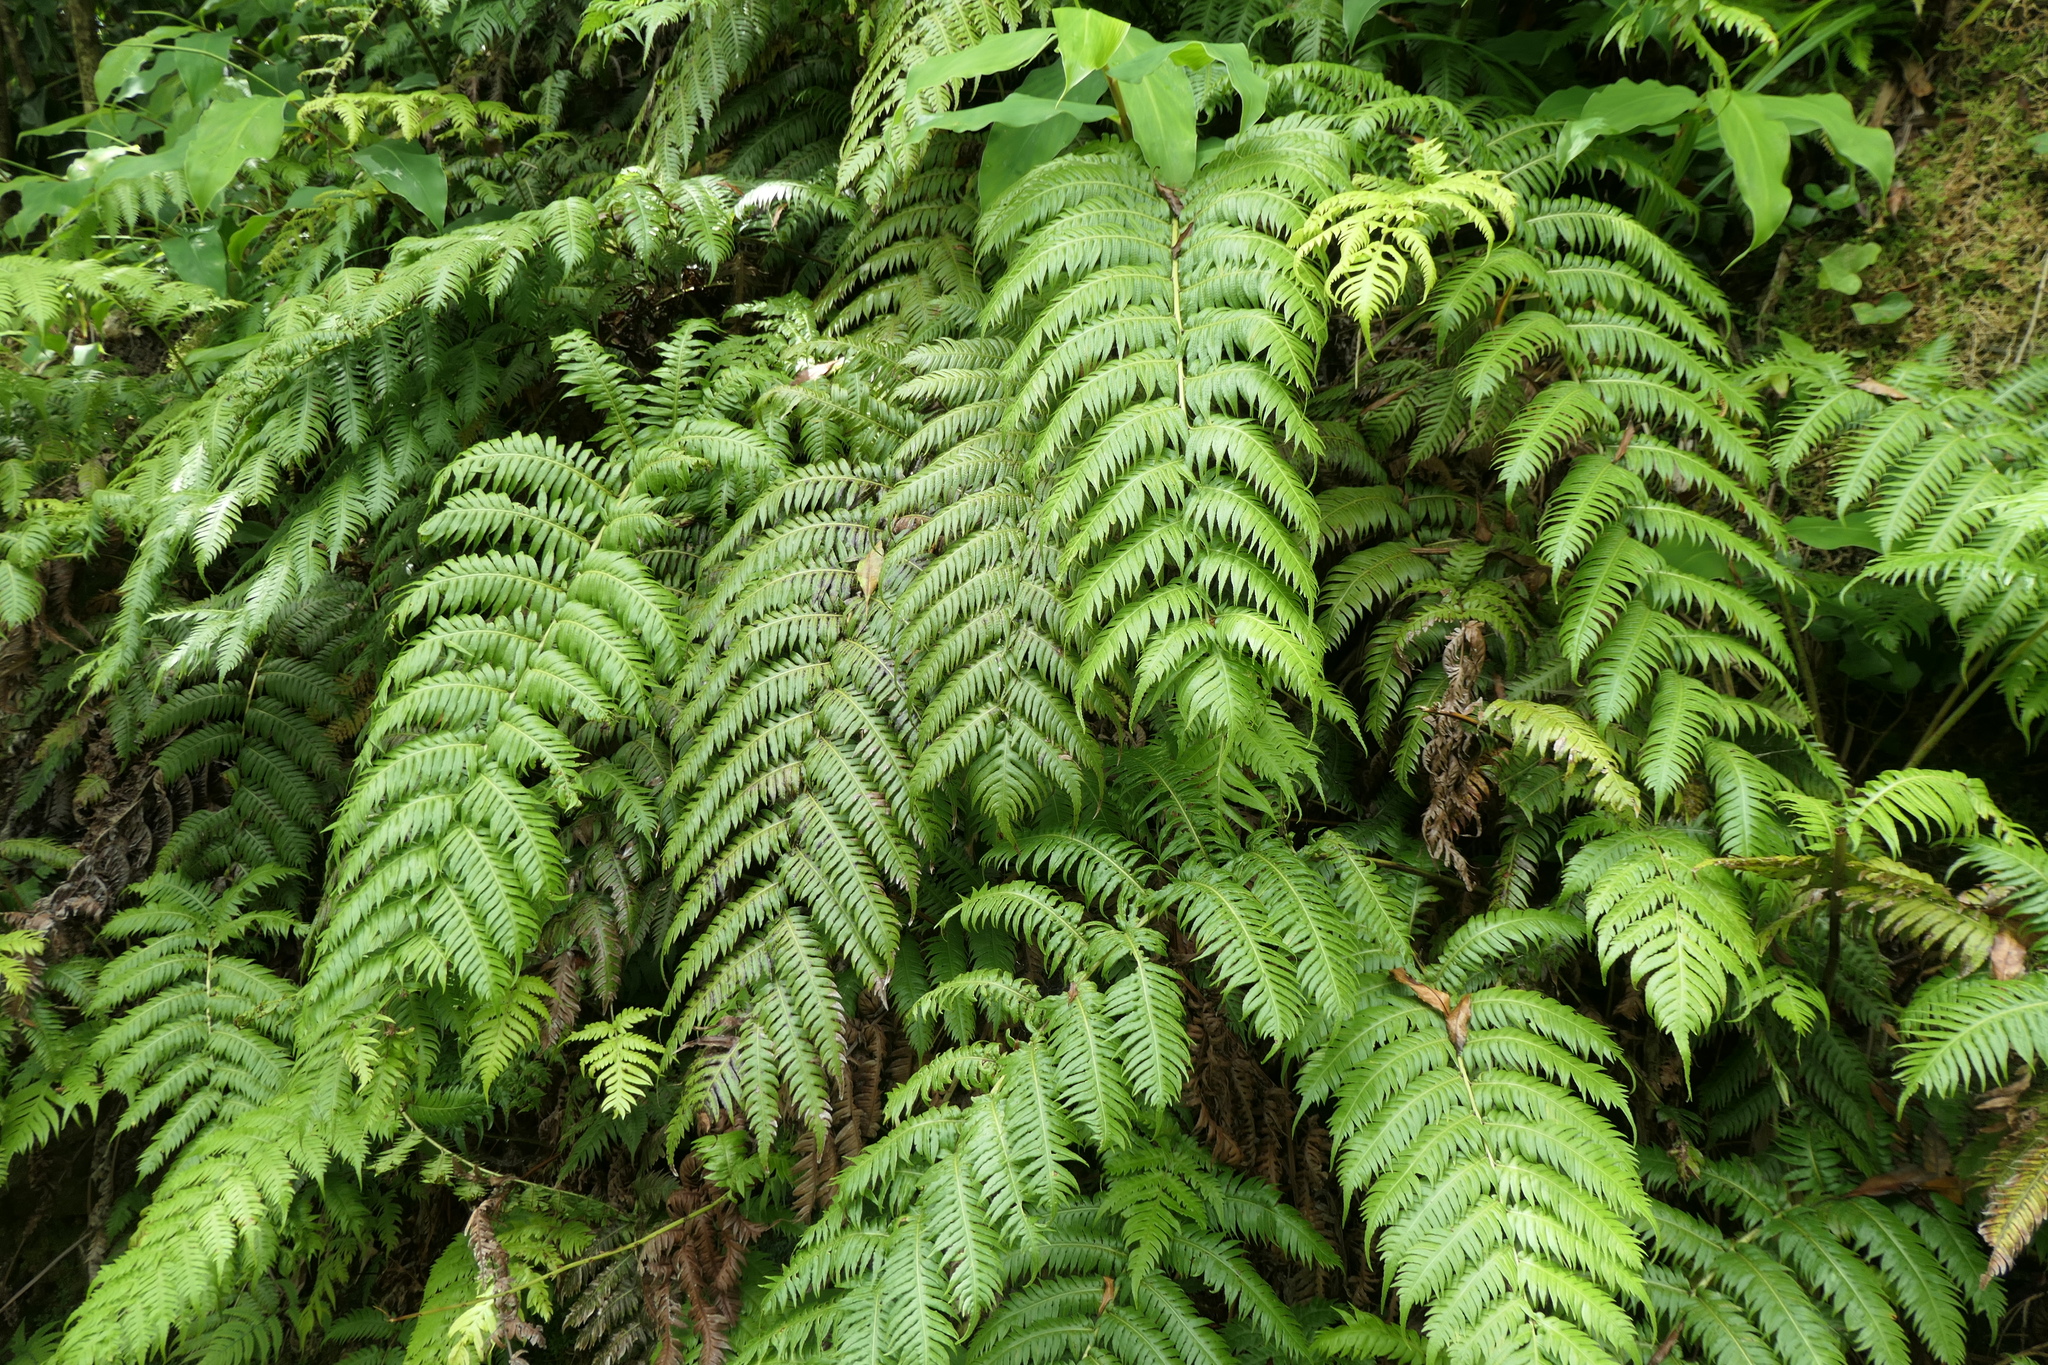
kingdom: Plantae
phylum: Tracheophyta
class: Polypodiopsida
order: Polypodiales
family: Blechnaceae
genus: Woodwardia
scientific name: Woodwardia radicans
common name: Rooting chainfern
